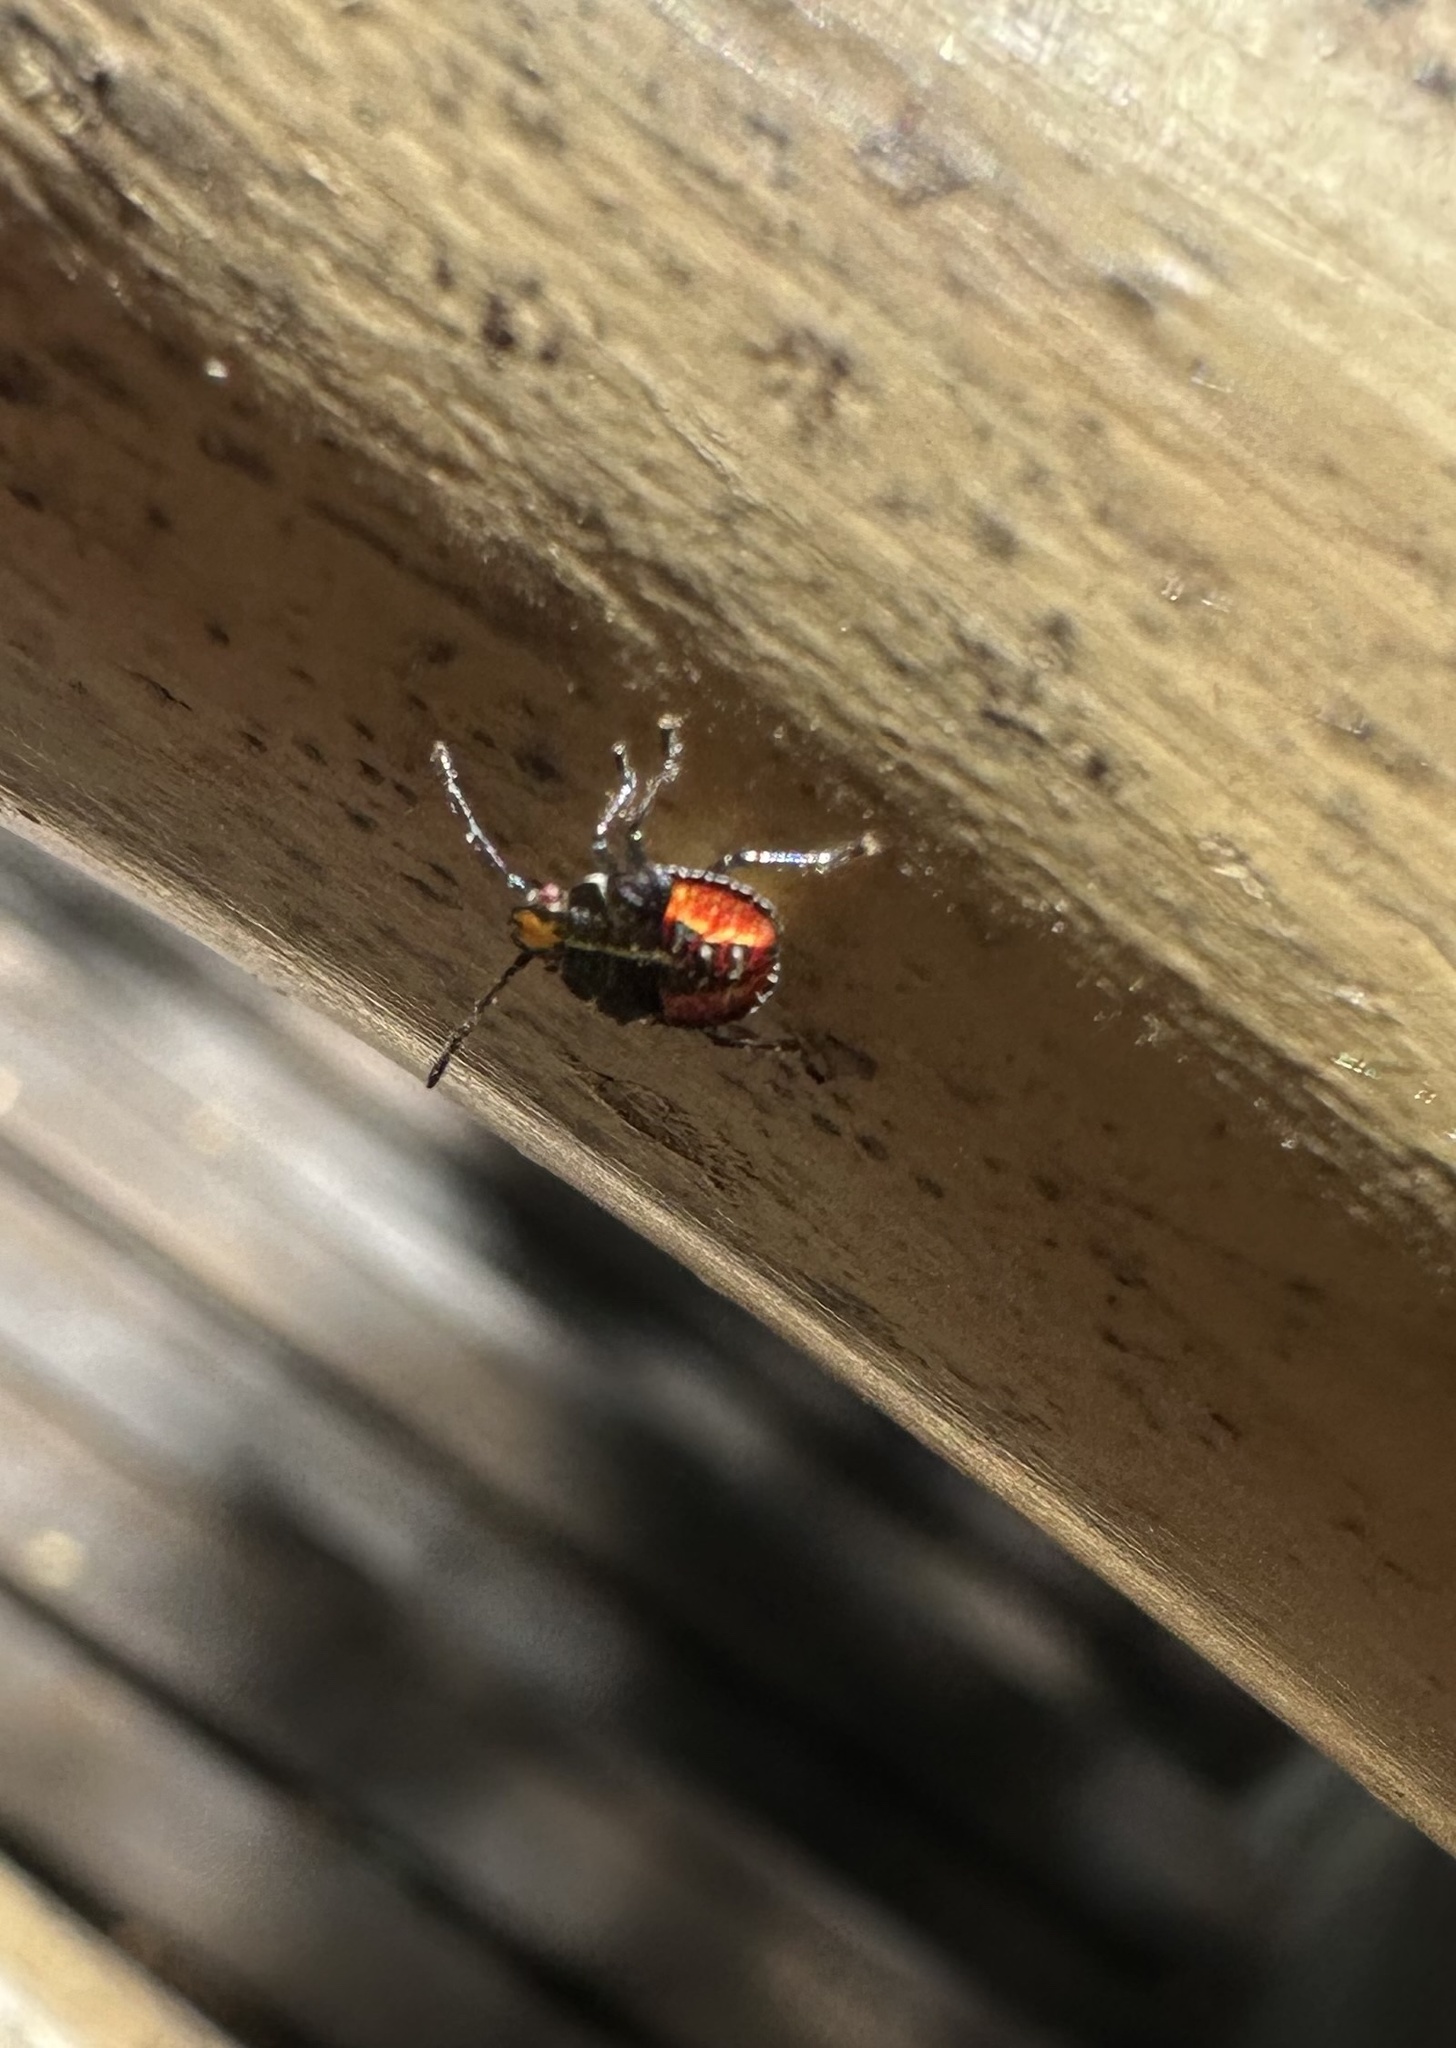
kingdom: Animalia
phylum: Arthropoda
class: Insecta
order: Hemiptera
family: Acanthosomatidae
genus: Sinopla
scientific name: Sinopla perpunctatus
